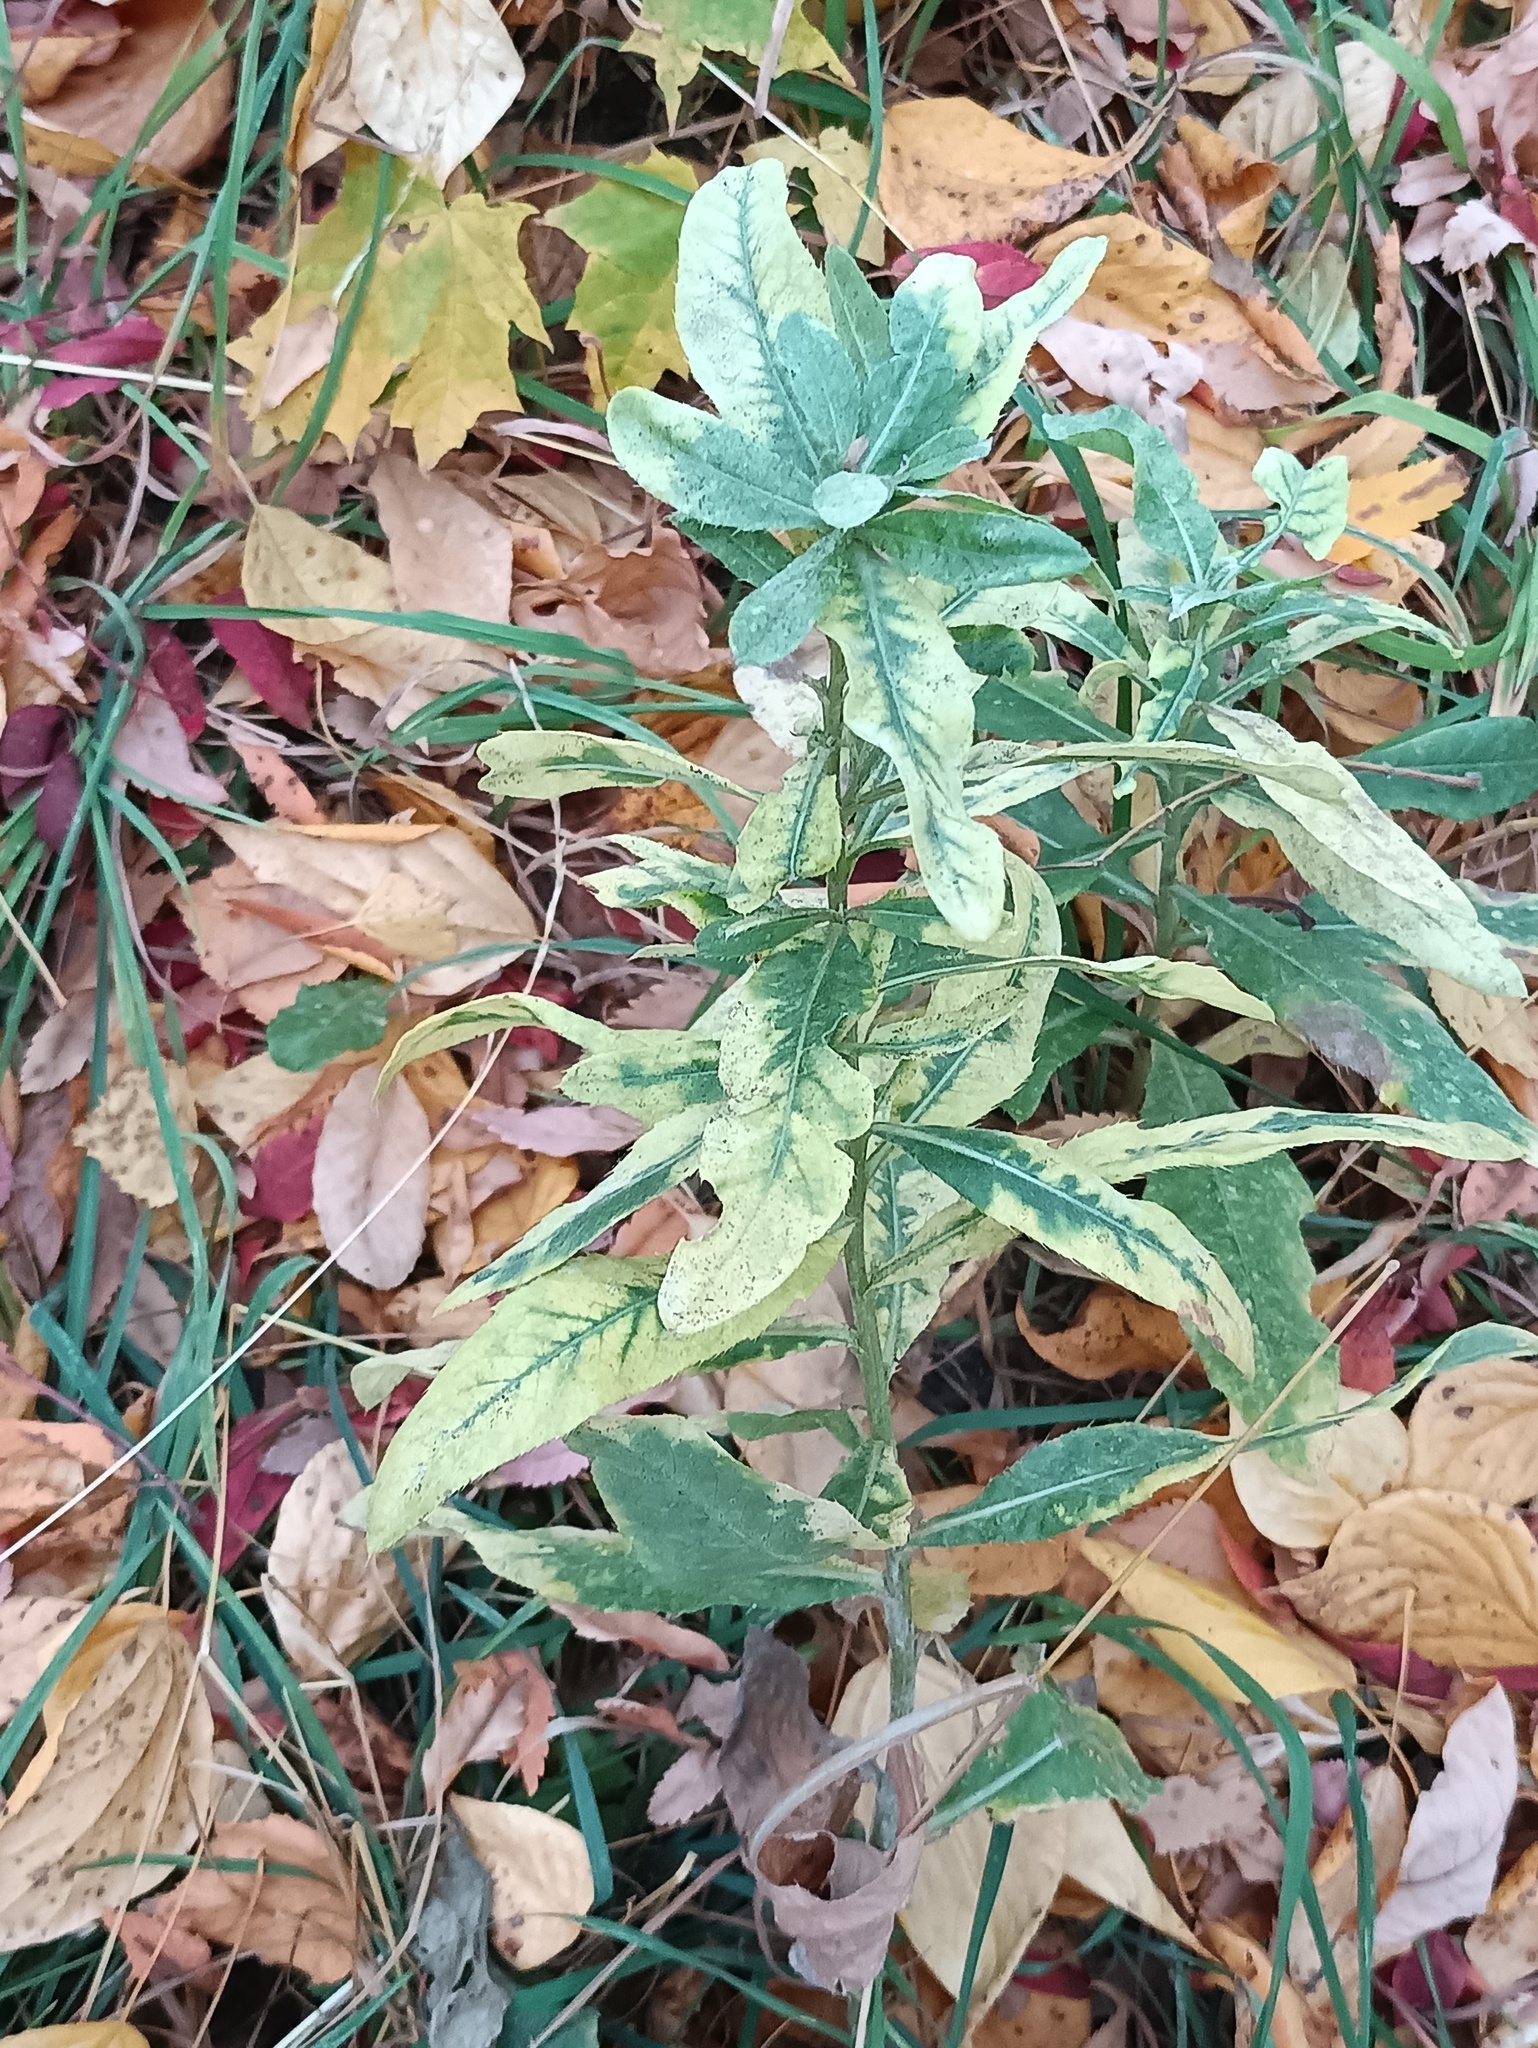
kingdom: Plantae
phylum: Tracheophyta
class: Magnoliopsida
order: Asterales
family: Asteraceae
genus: Cirsium
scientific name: Cirsium arvense
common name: Creeping thistle
